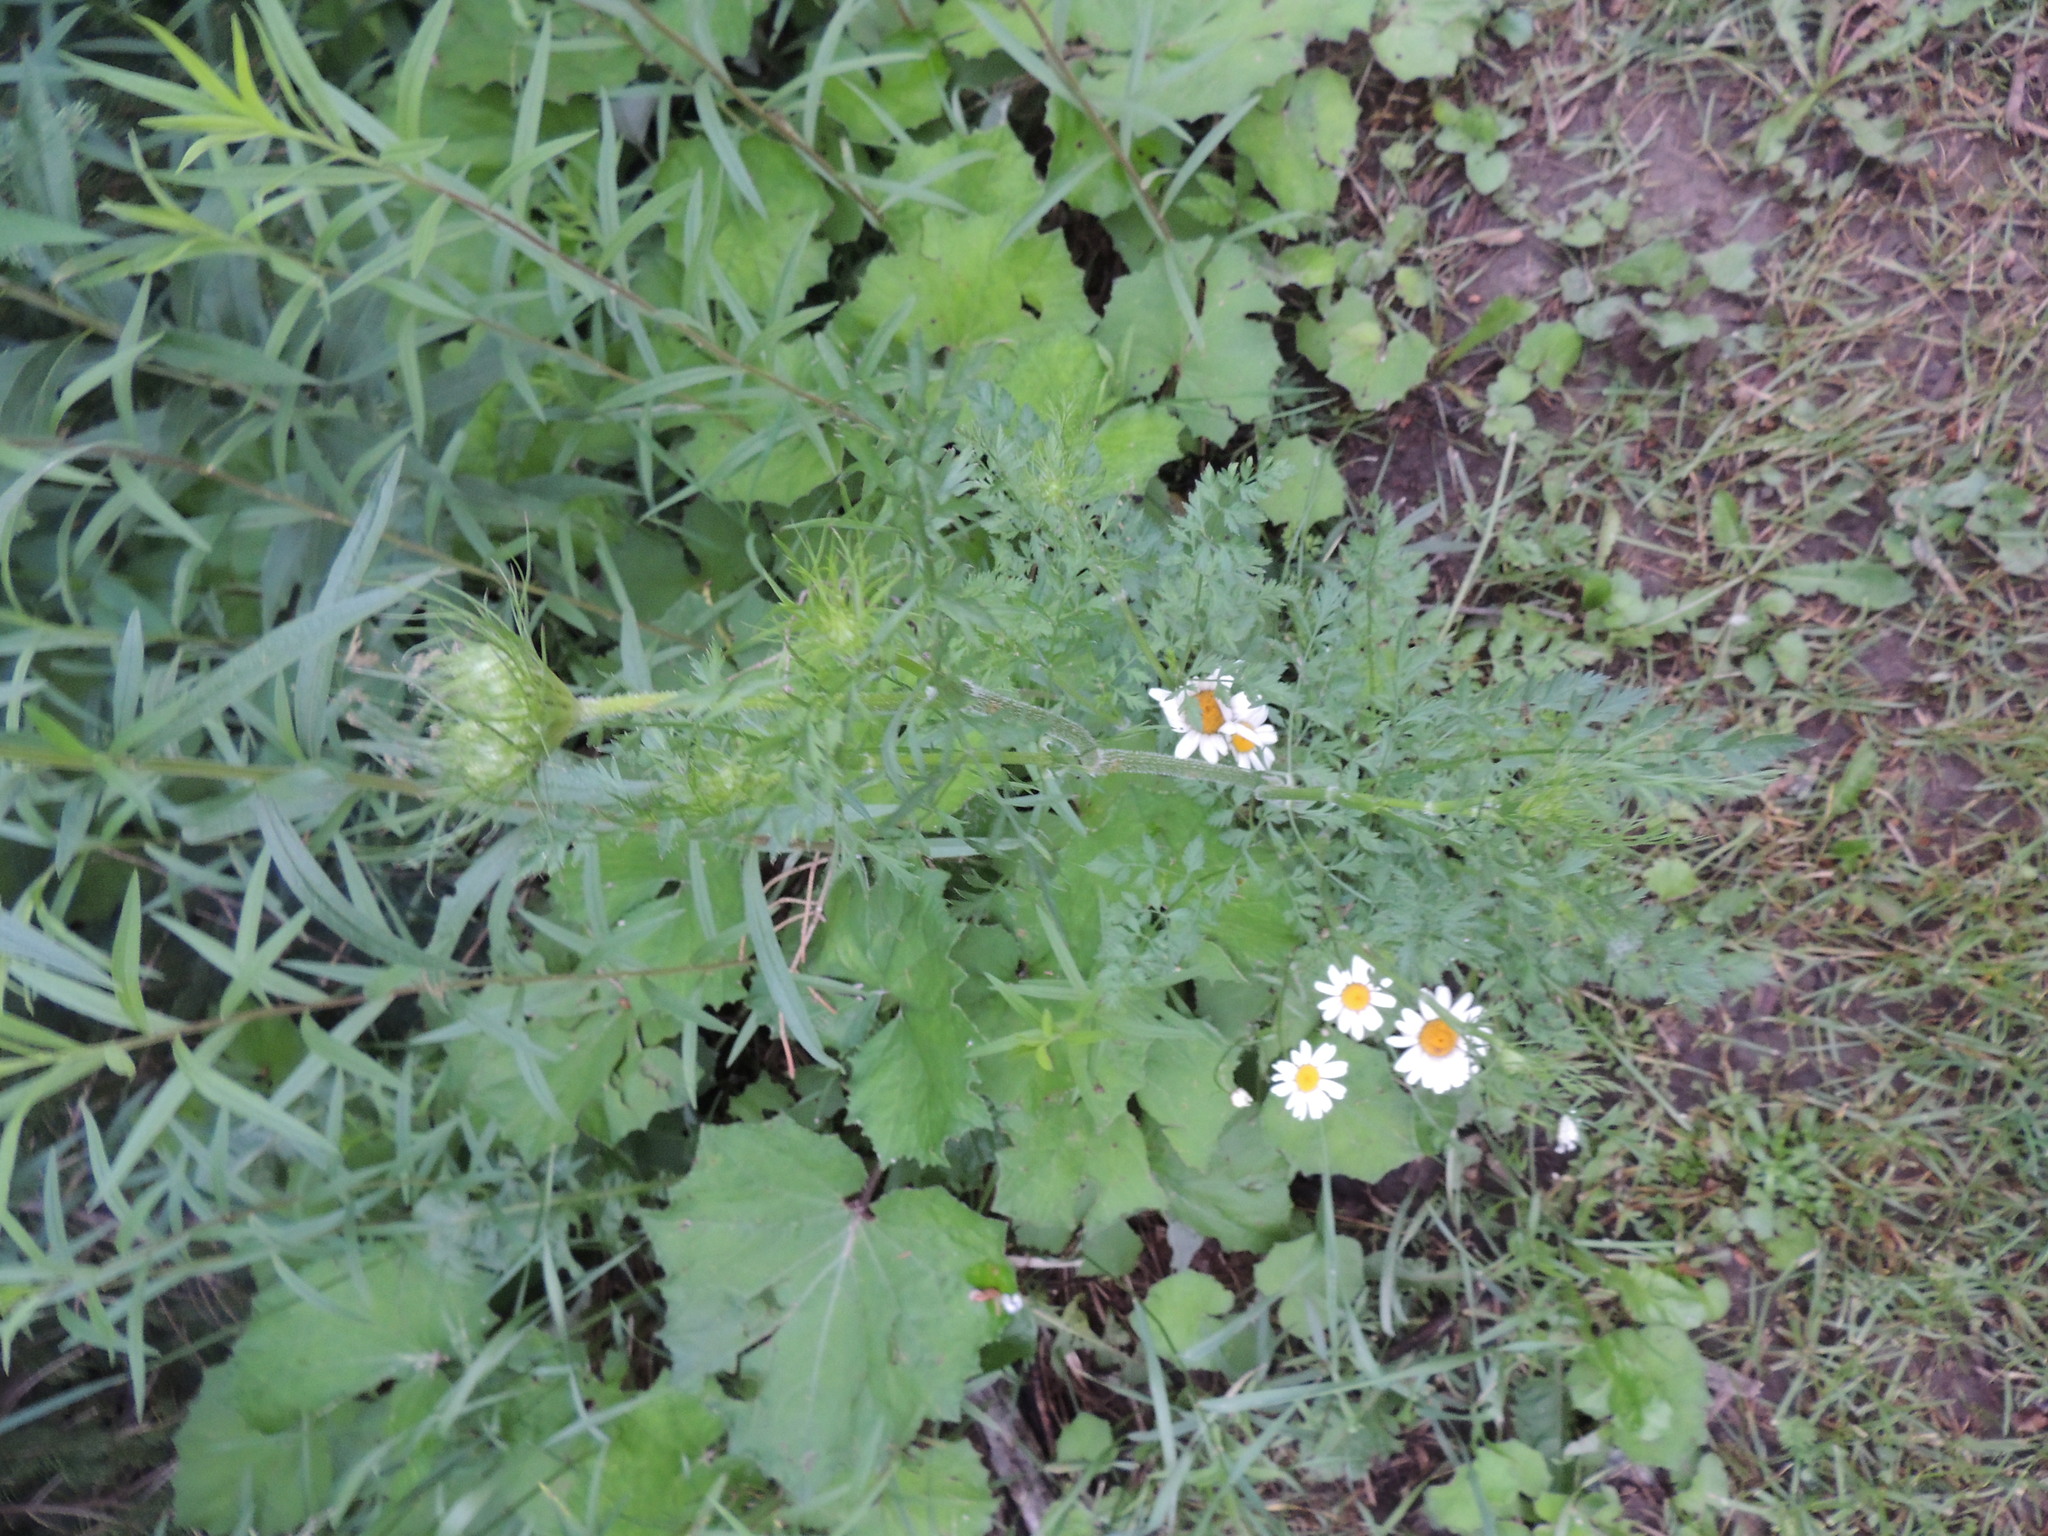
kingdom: Plantae
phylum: Tracheophyta
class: Magnoliopsida
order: Apiales
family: Apiaceae
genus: Daucus
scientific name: Daucus carota
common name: Wild carrot
